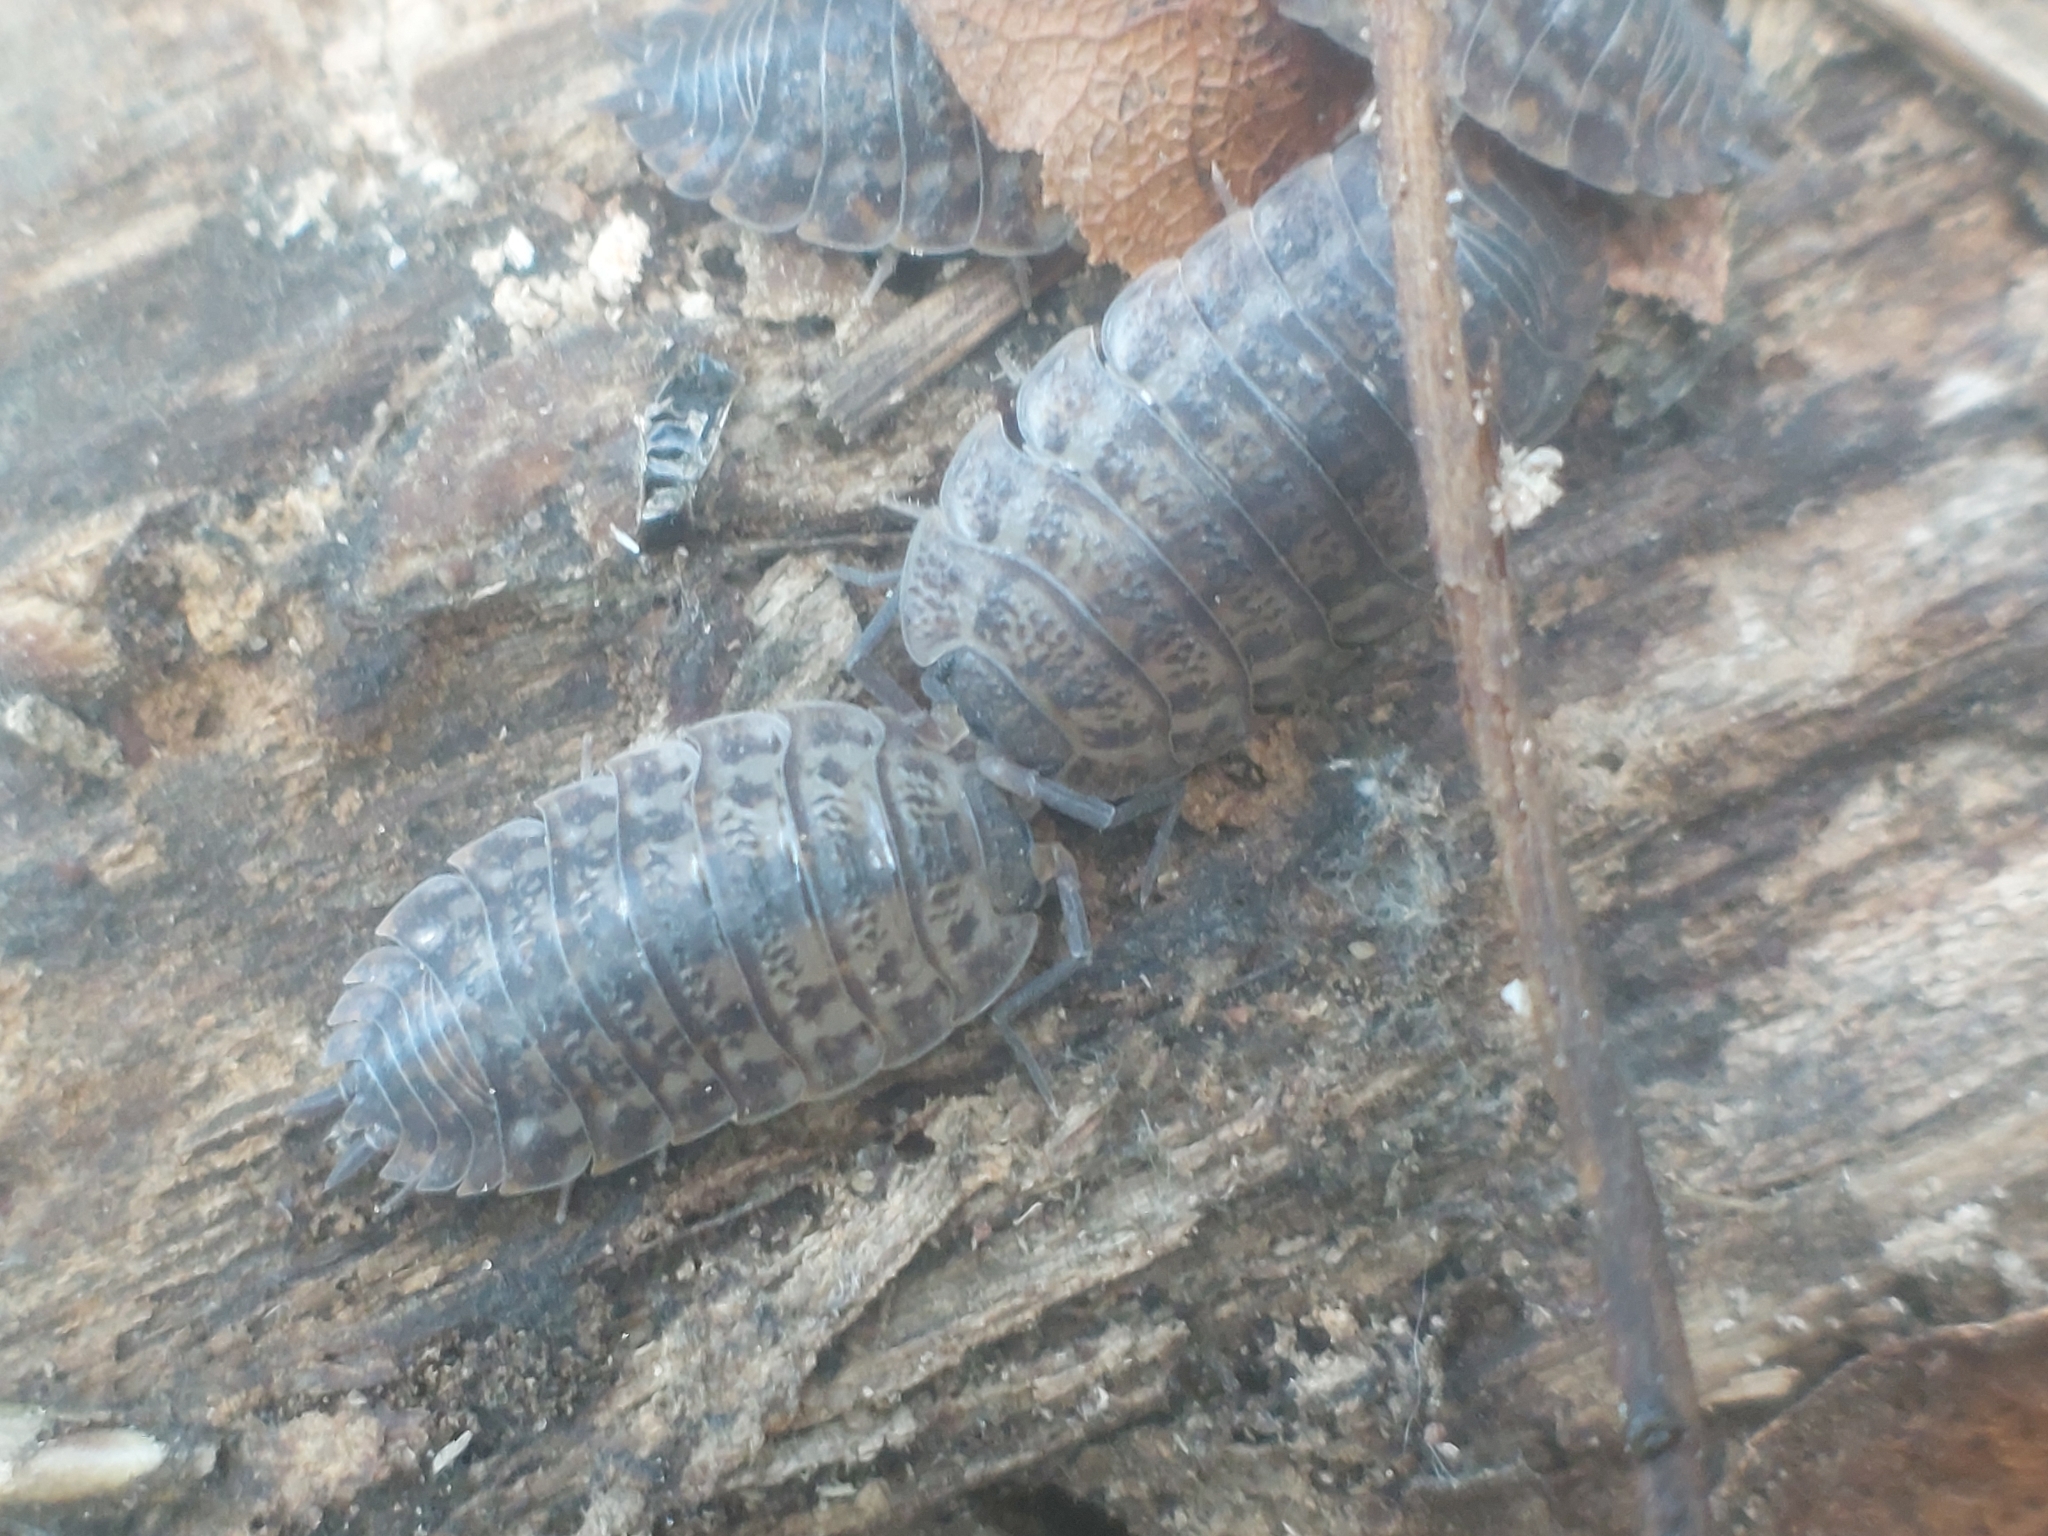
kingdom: Animalia
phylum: Arthropoda
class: Malacostraca
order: Isopoda
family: Trachelipodidae
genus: Trachelipus
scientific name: Trachelipus rathkii
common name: Isopod
